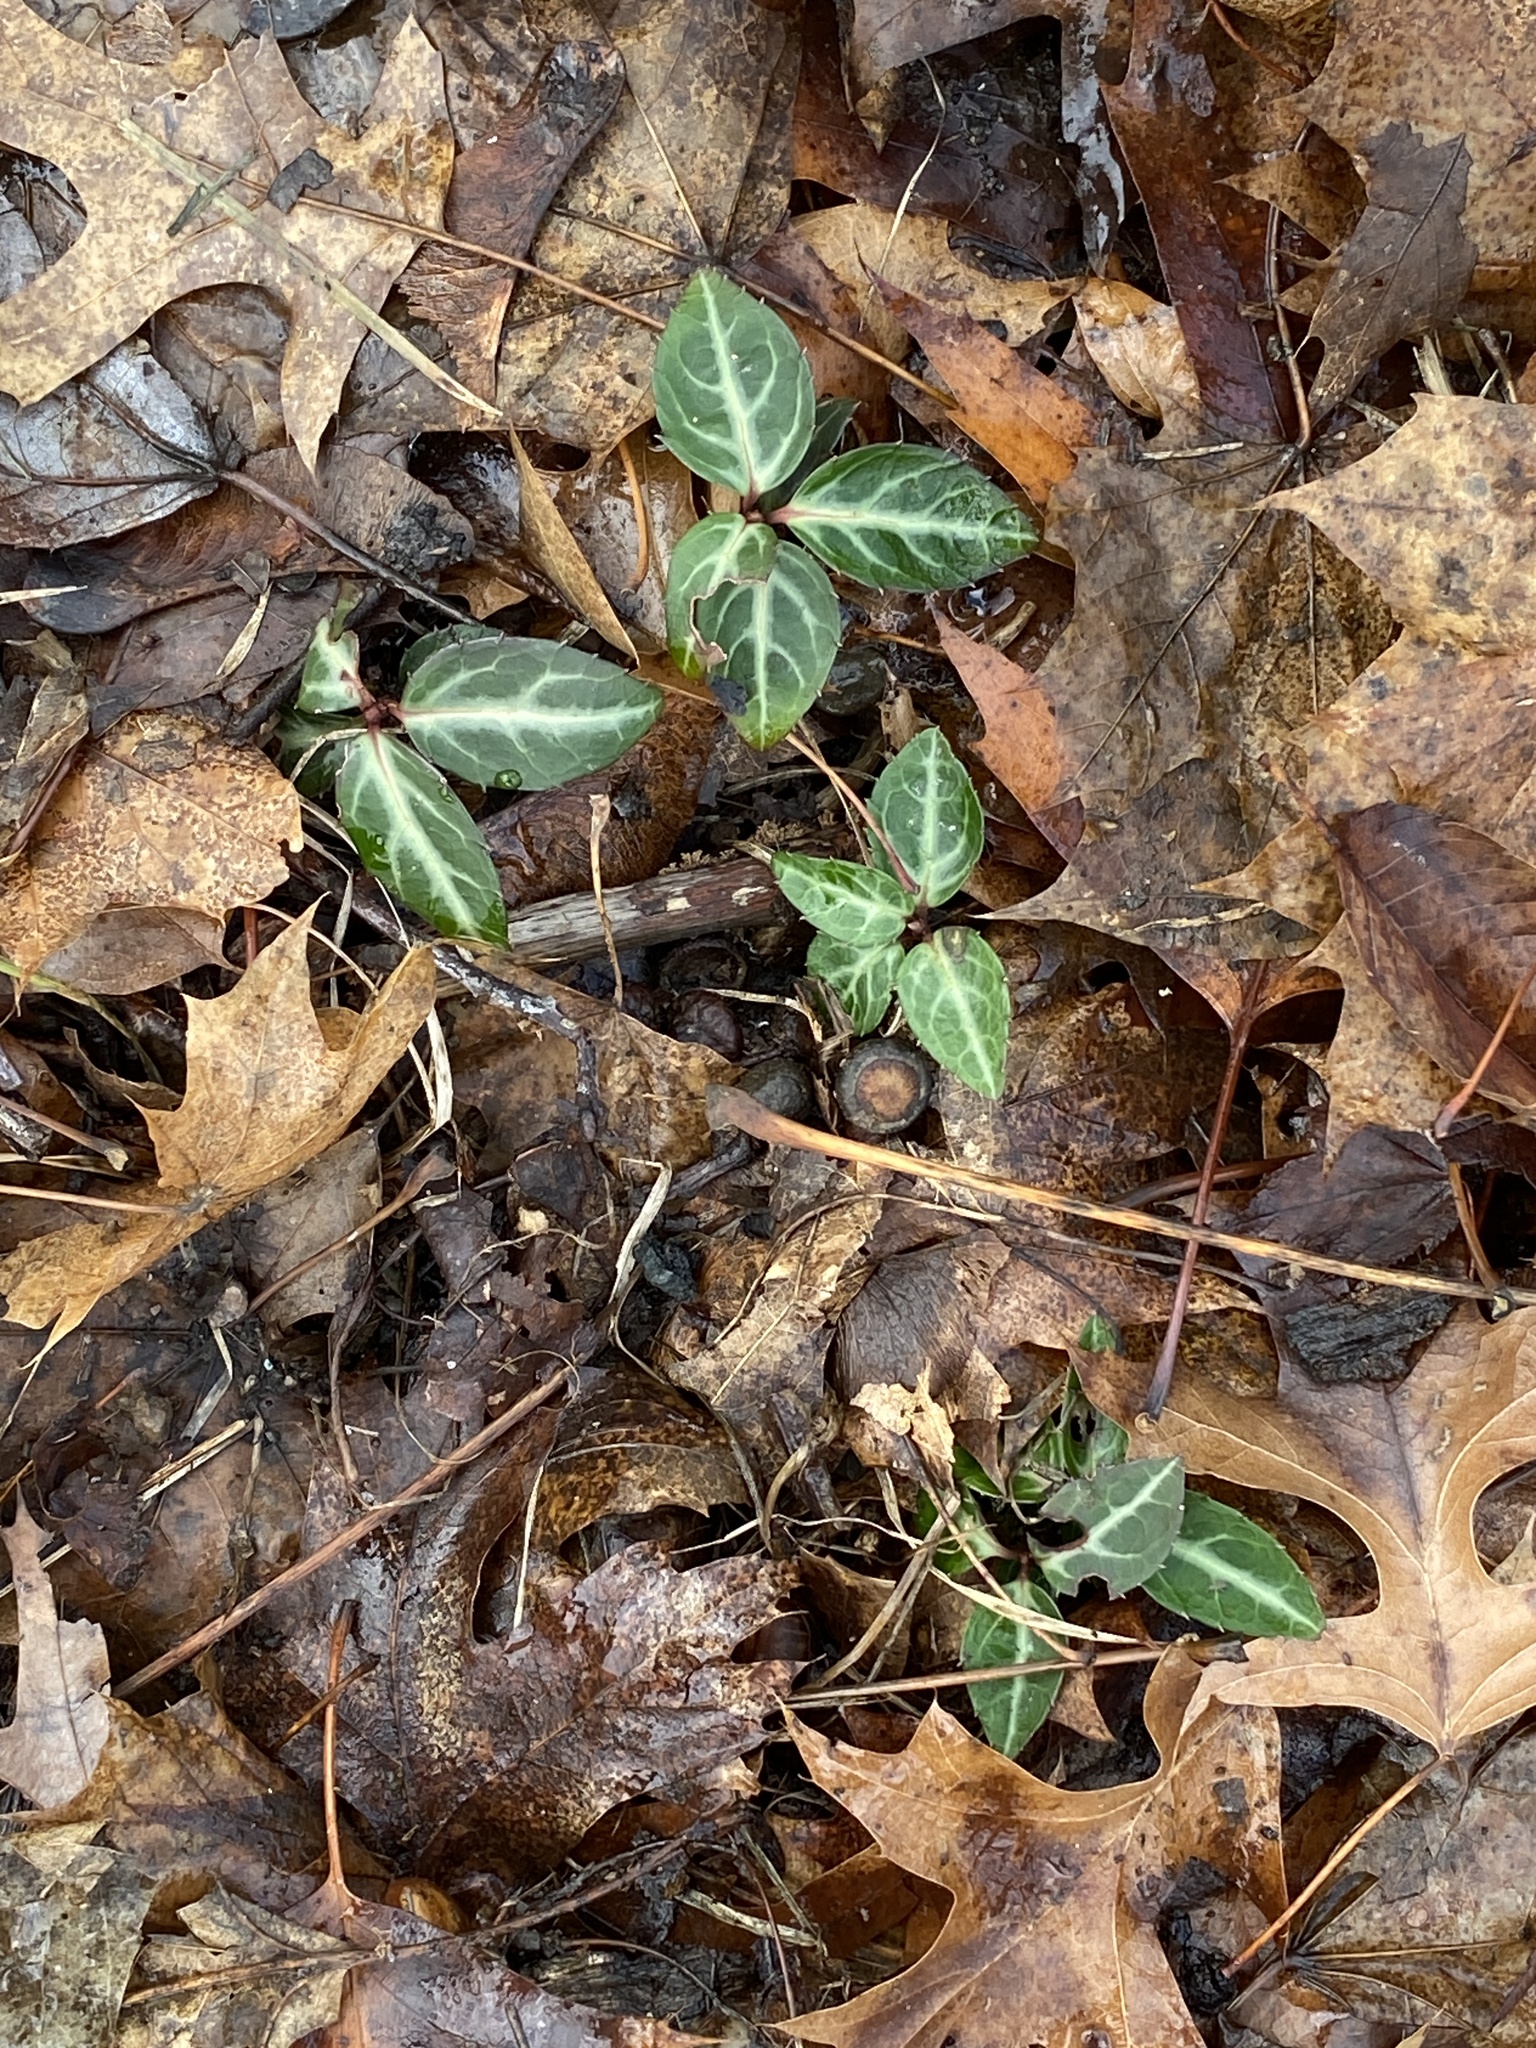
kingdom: Plantae
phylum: Tracheophyta
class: Magnoliopsida
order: Ericales
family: Ericaceae
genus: Chimaphila
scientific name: Chimaphila maculata
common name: Spotted pipsissewa
